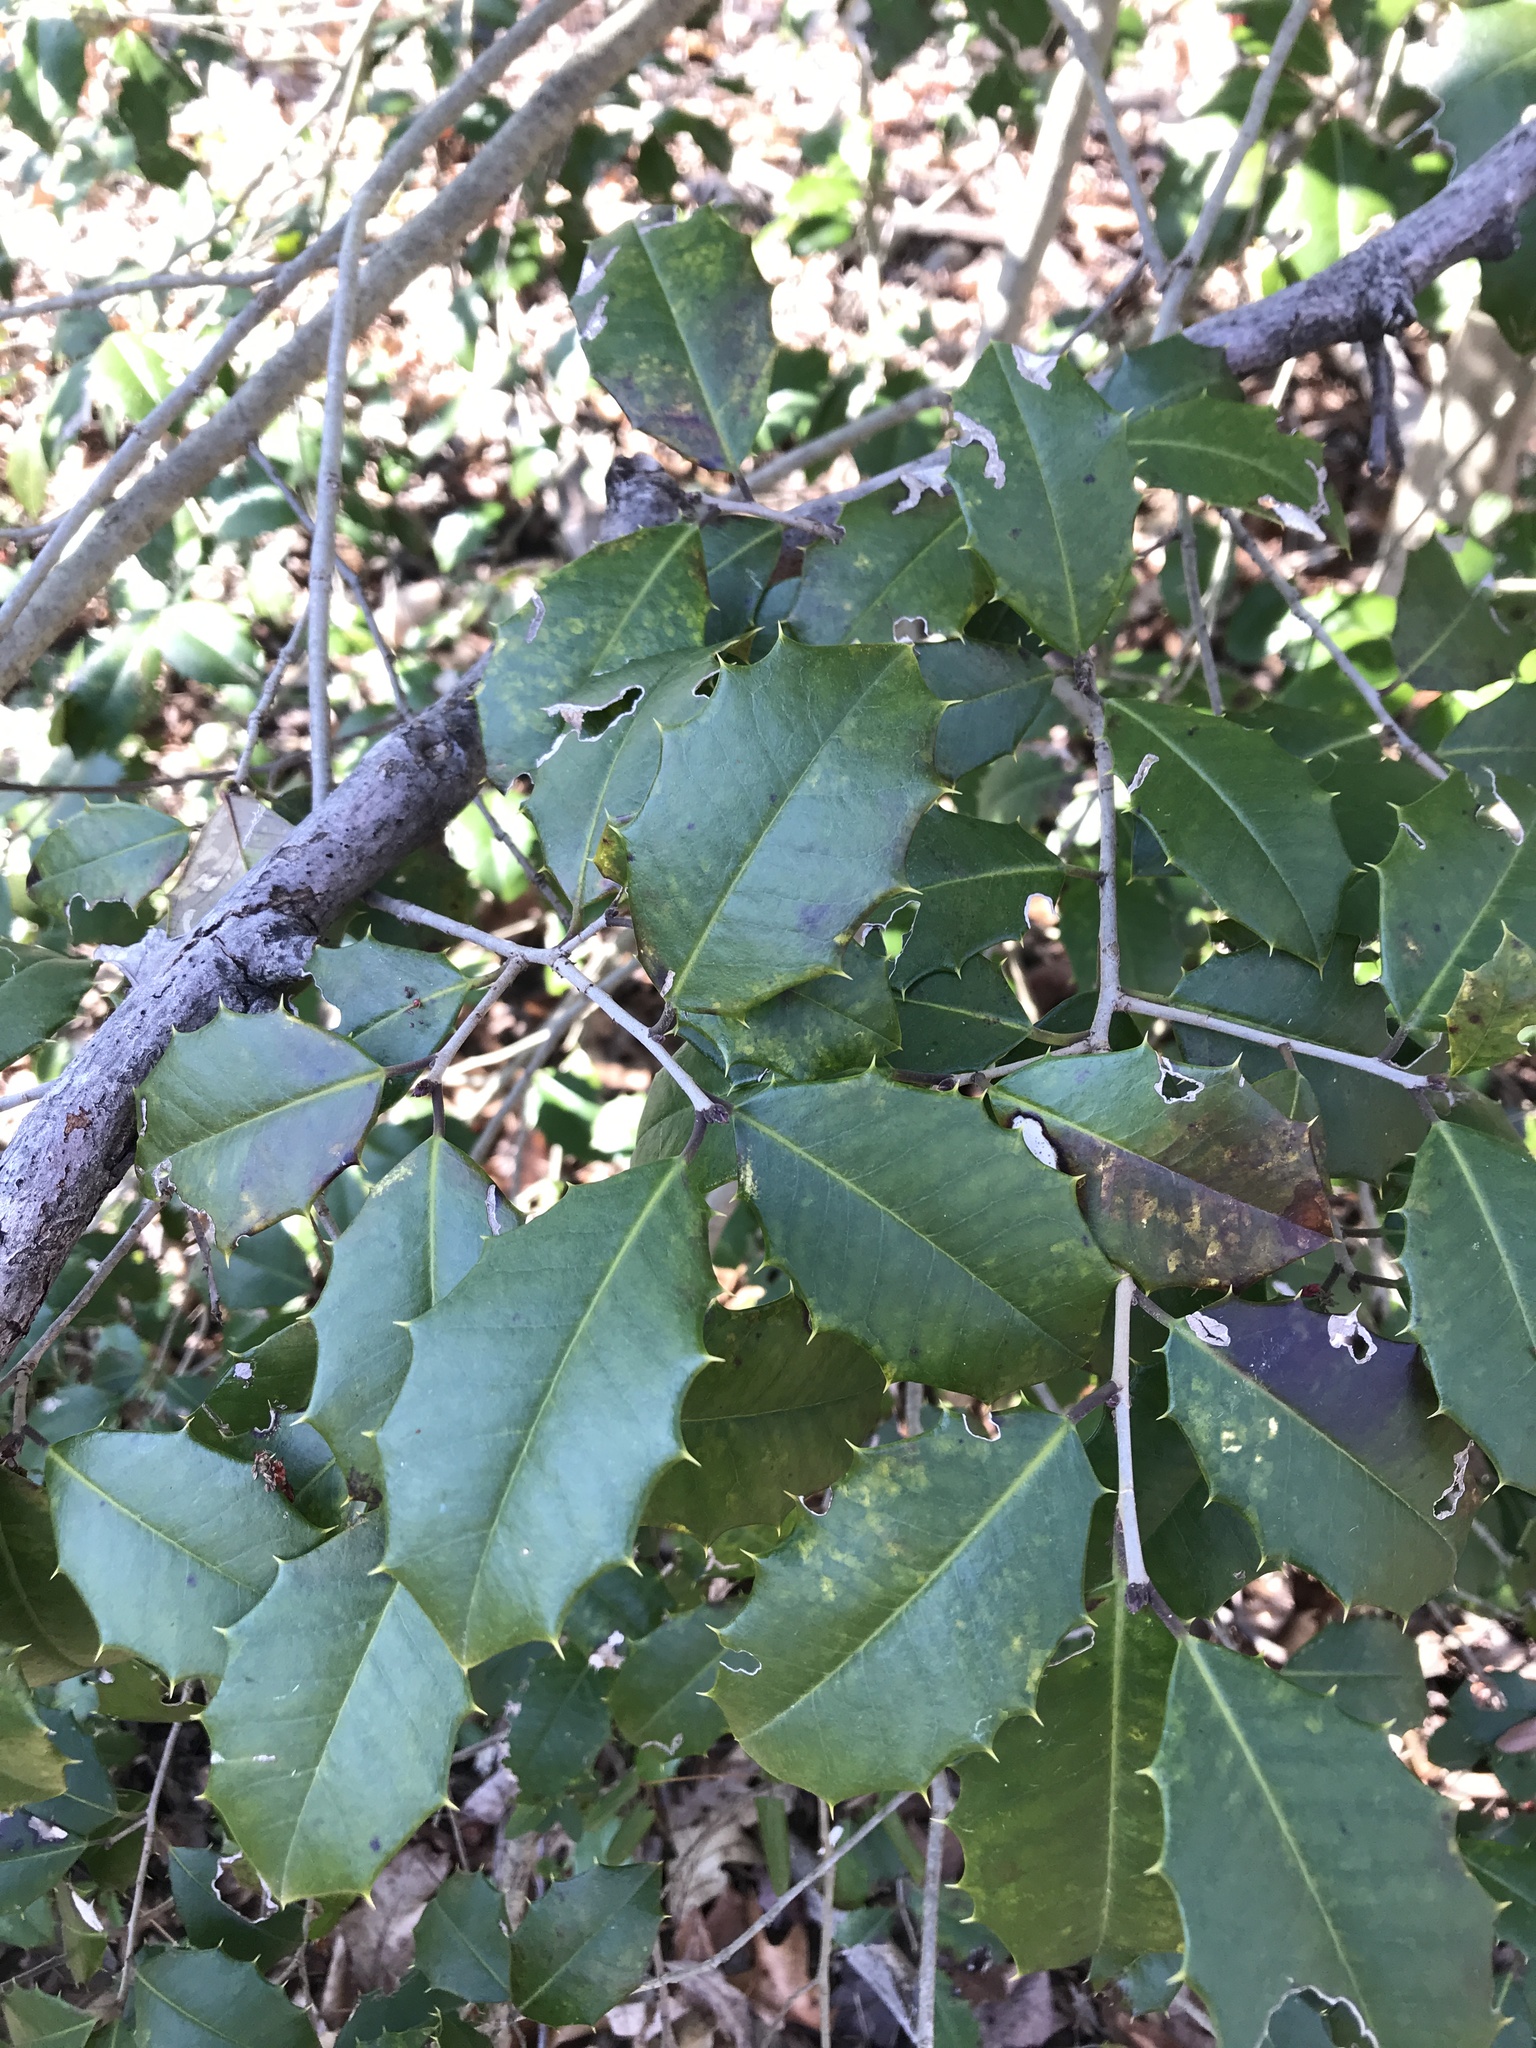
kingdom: Plantae
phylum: Tracheophyta
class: Magnoliopsida
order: Aquifoliales
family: Aquifoliaceae
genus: Ilex
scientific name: Ilex opaca
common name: American holly
